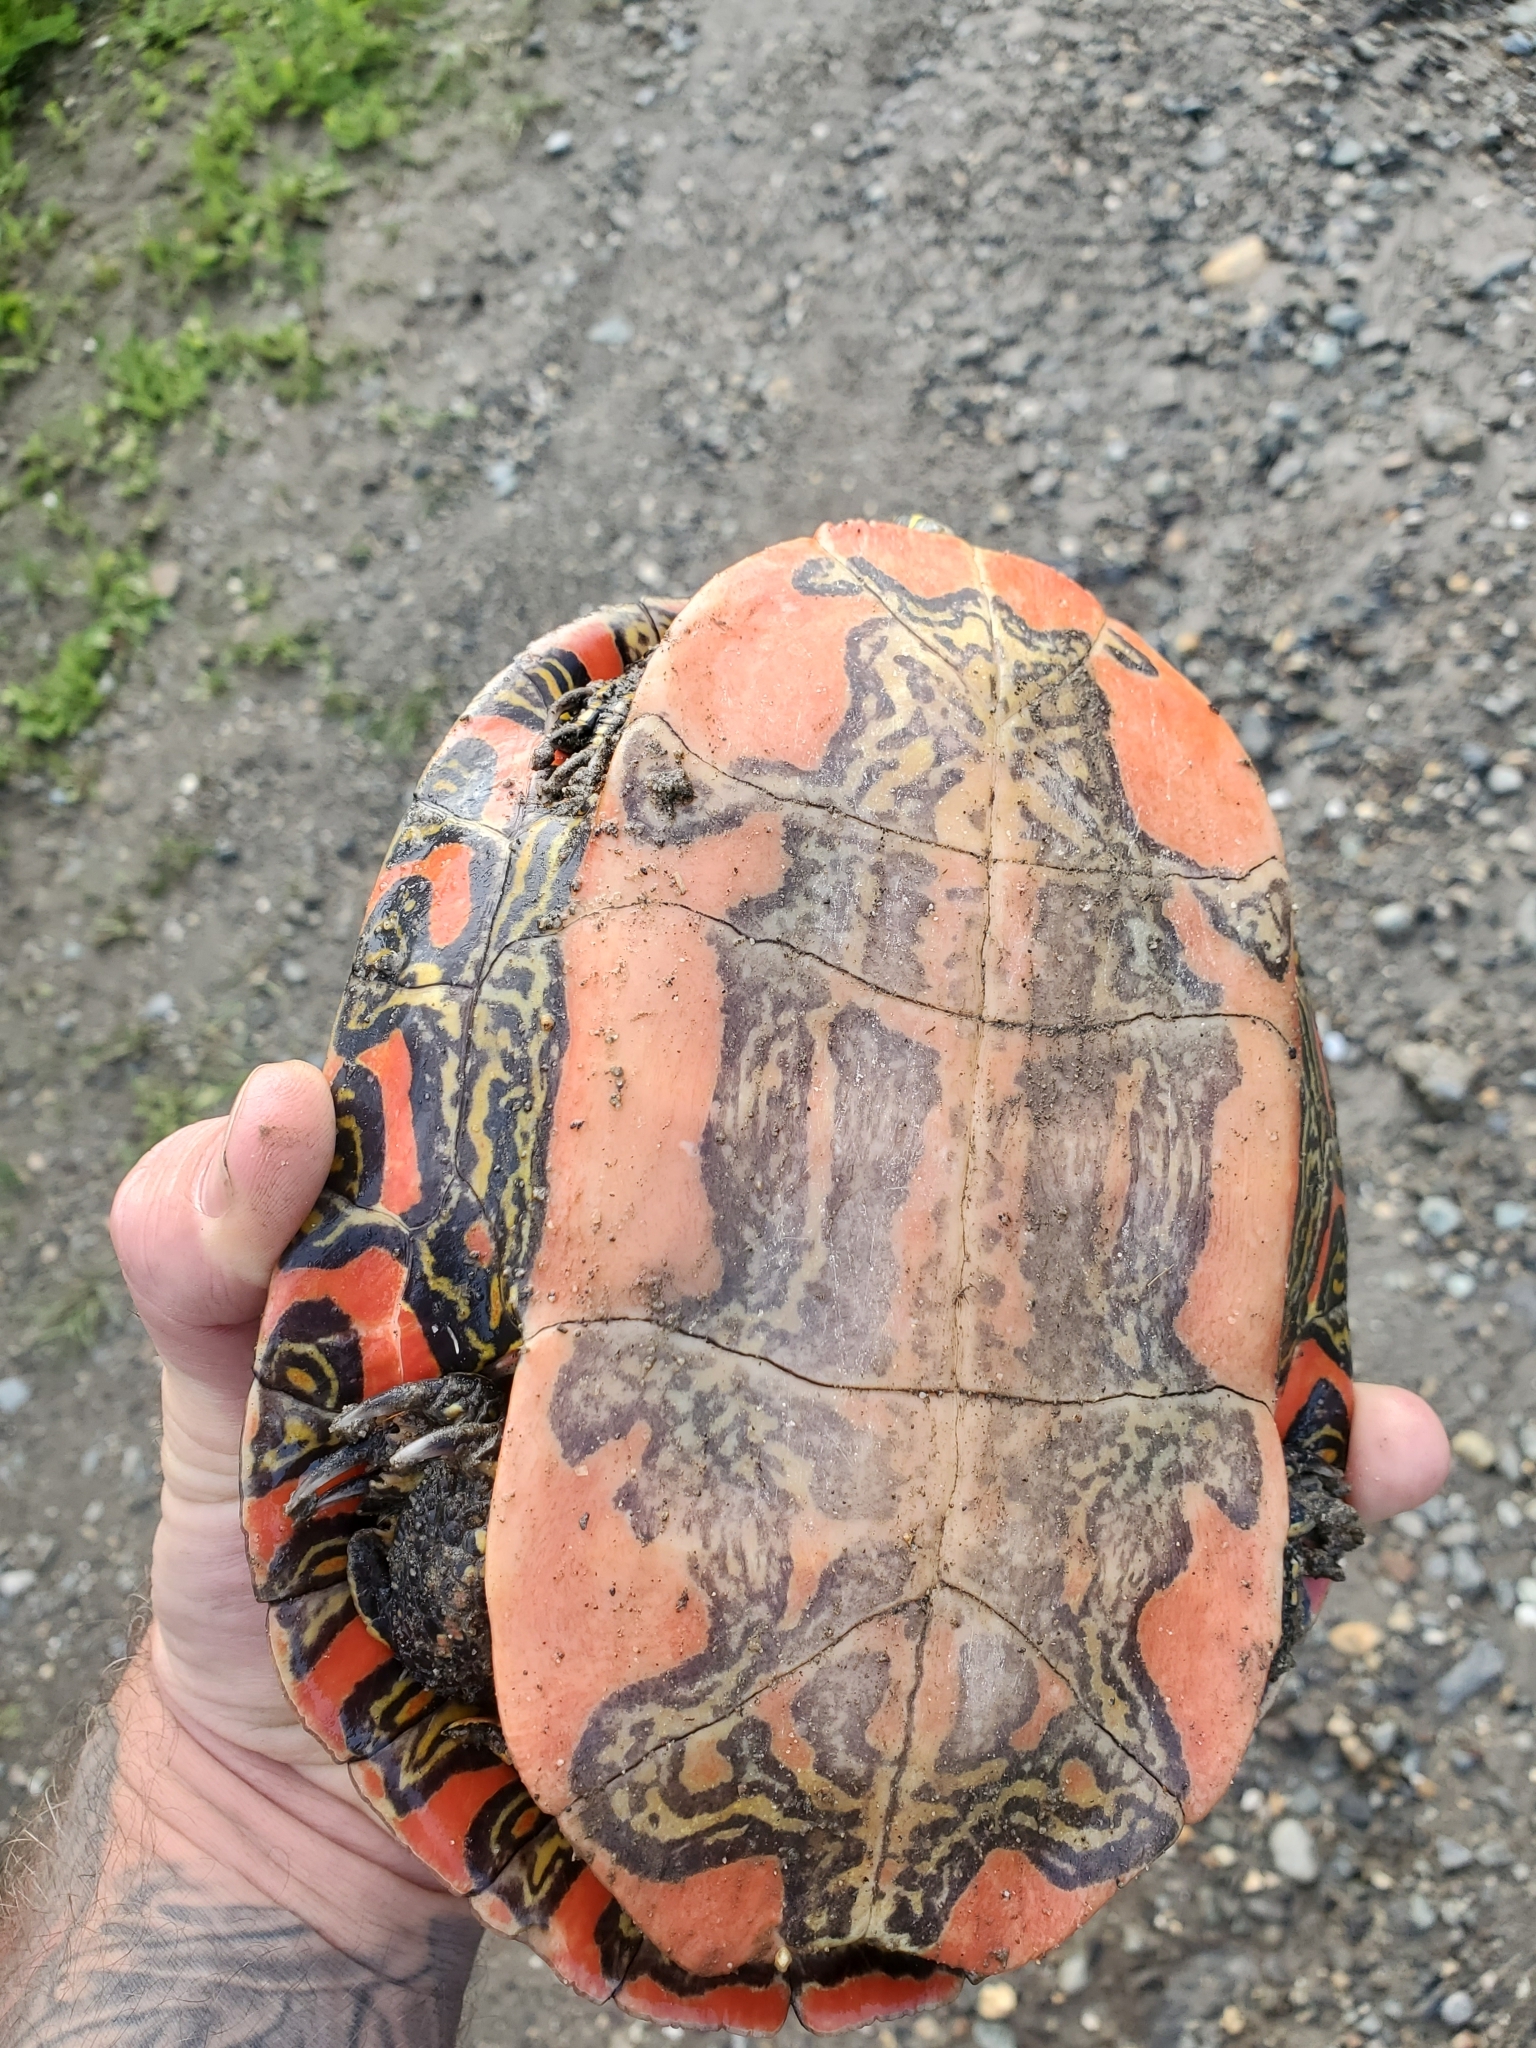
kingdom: Animalia
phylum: Chordata
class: Testudines
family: Emydidae
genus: Chrysemys
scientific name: Chrysemys picta
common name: Painted turtle
